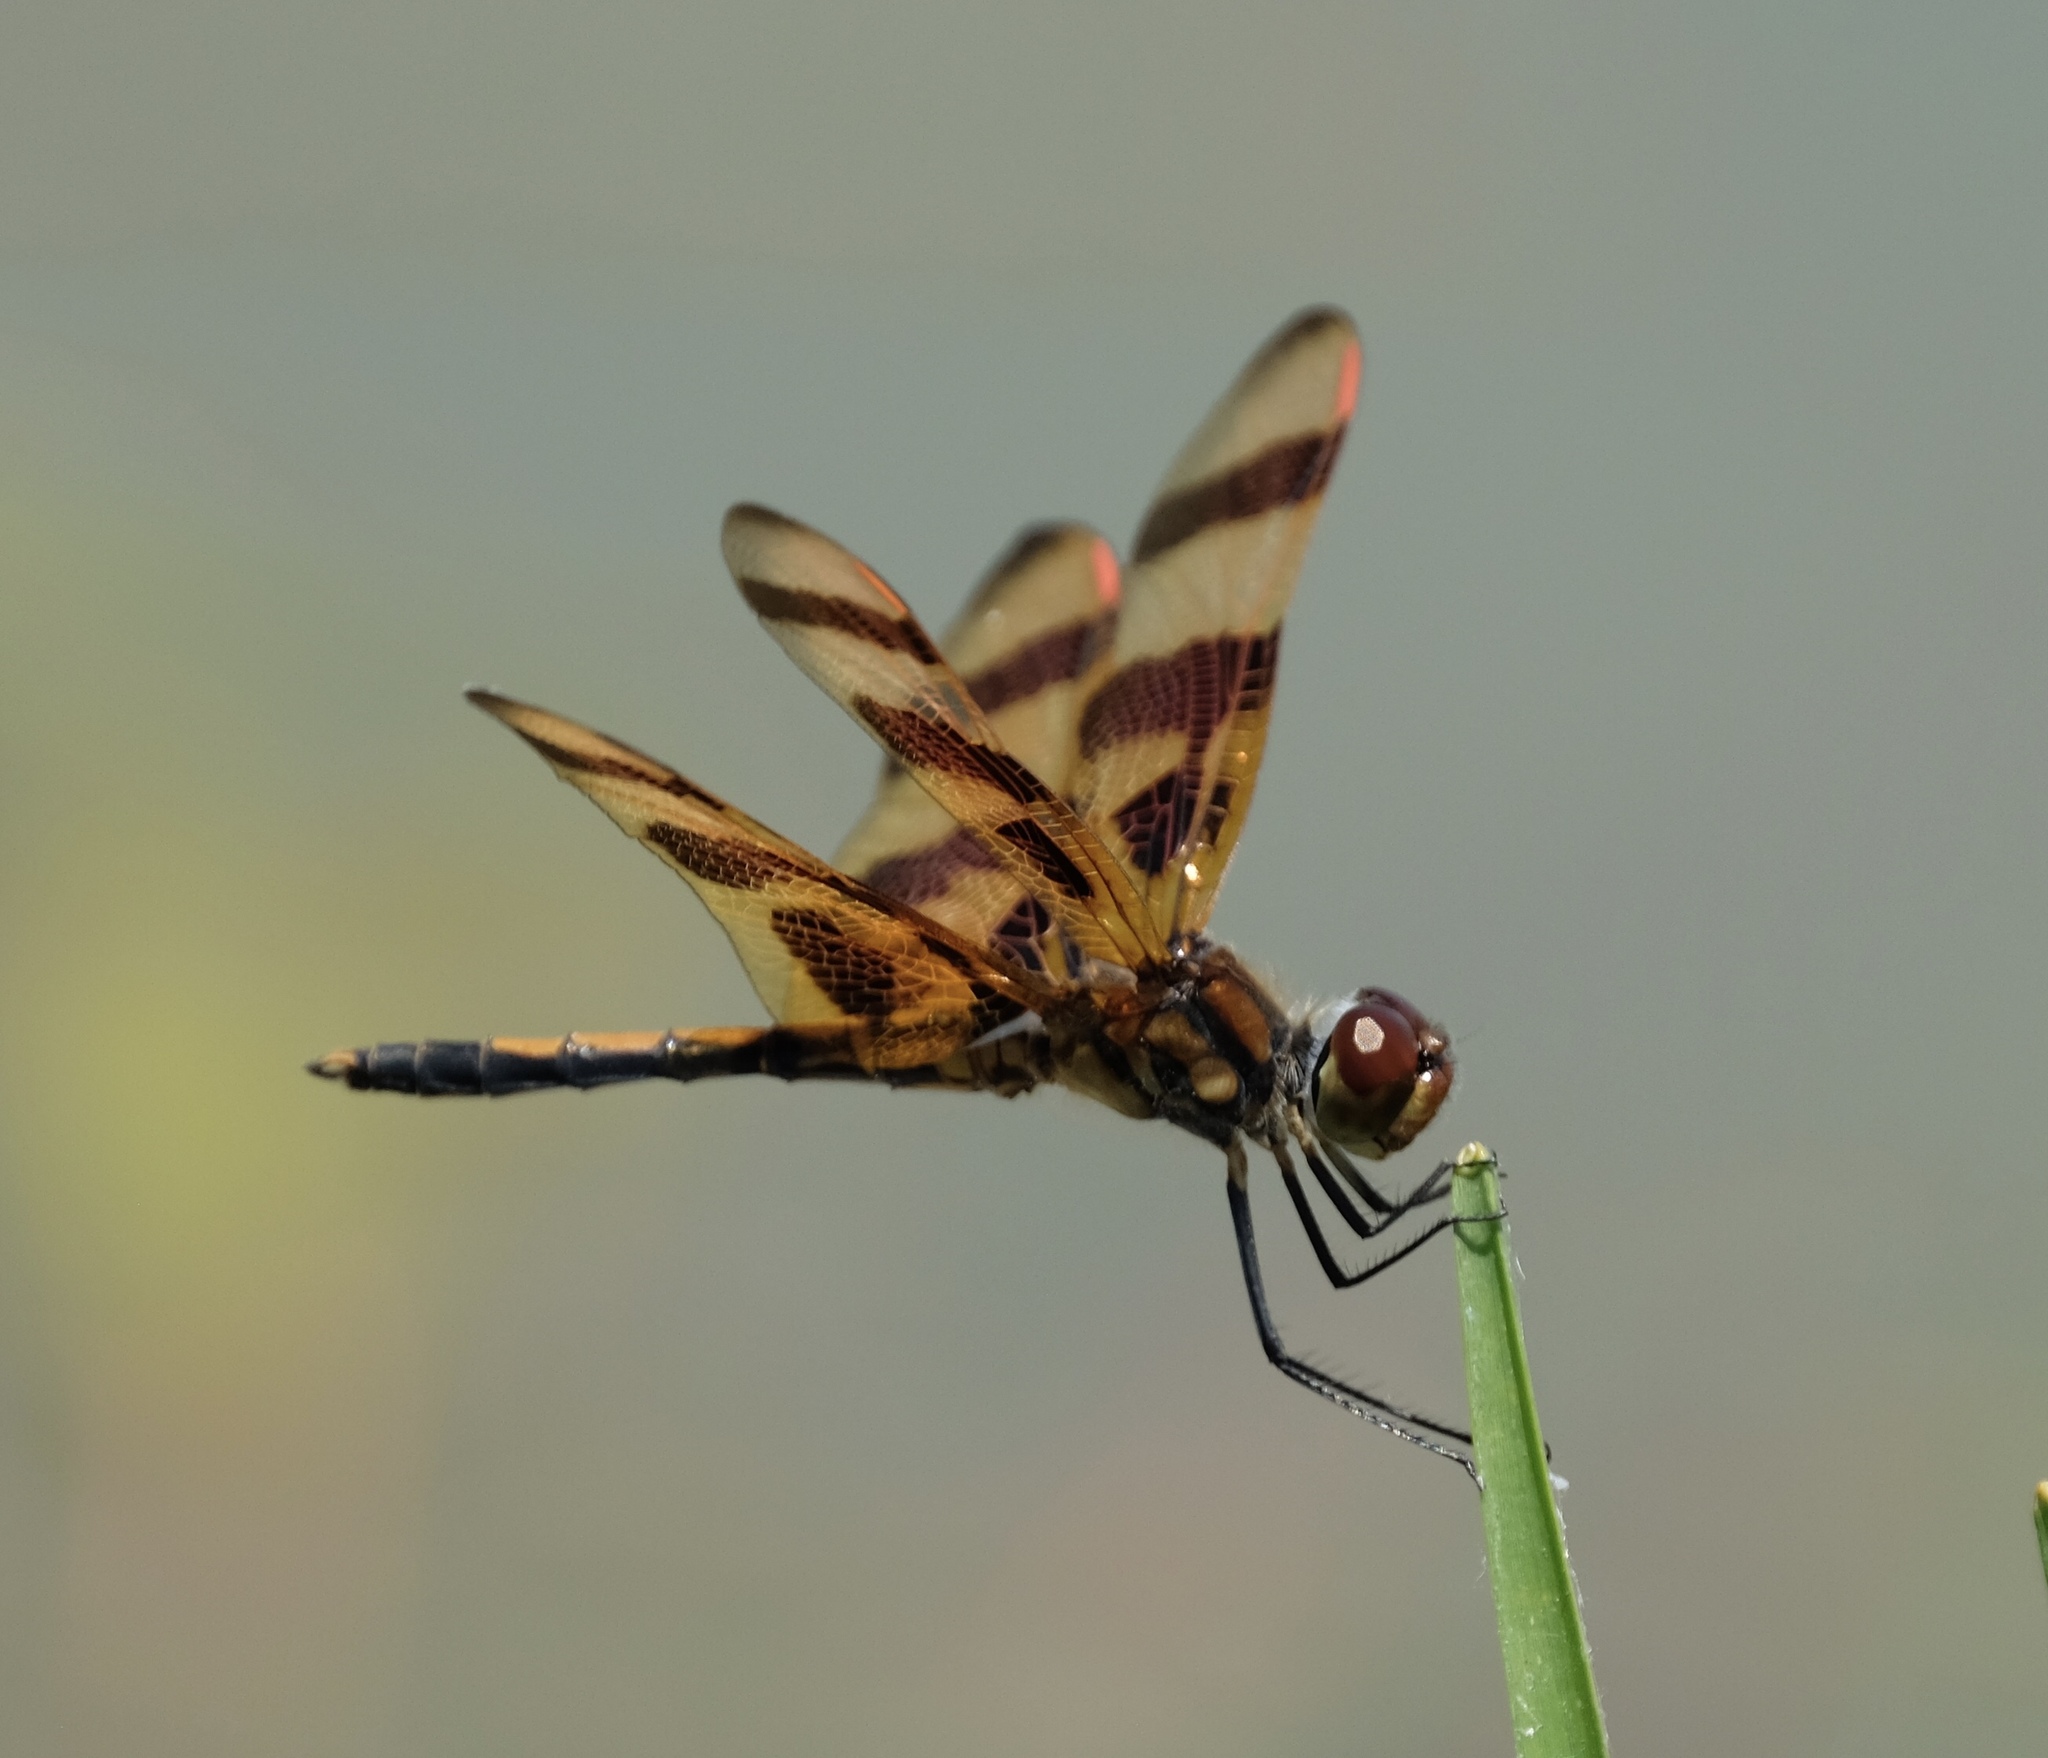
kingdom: Animalia
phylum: Arthropoda
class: Insecta
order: Odonata
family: Libellulidae
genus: Celithemis
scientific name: Celithemis eponina
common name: Halloween pennant
